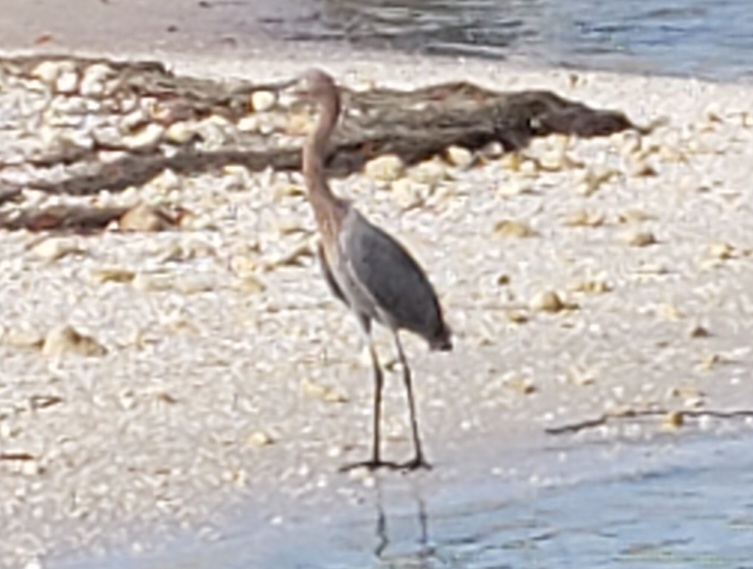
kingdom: Animalia
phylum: Chordata
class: Aves
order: Pelecaniformes
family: Ardeidae
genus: Egretta
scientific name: Egretta rufescens
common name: Reddish egret
